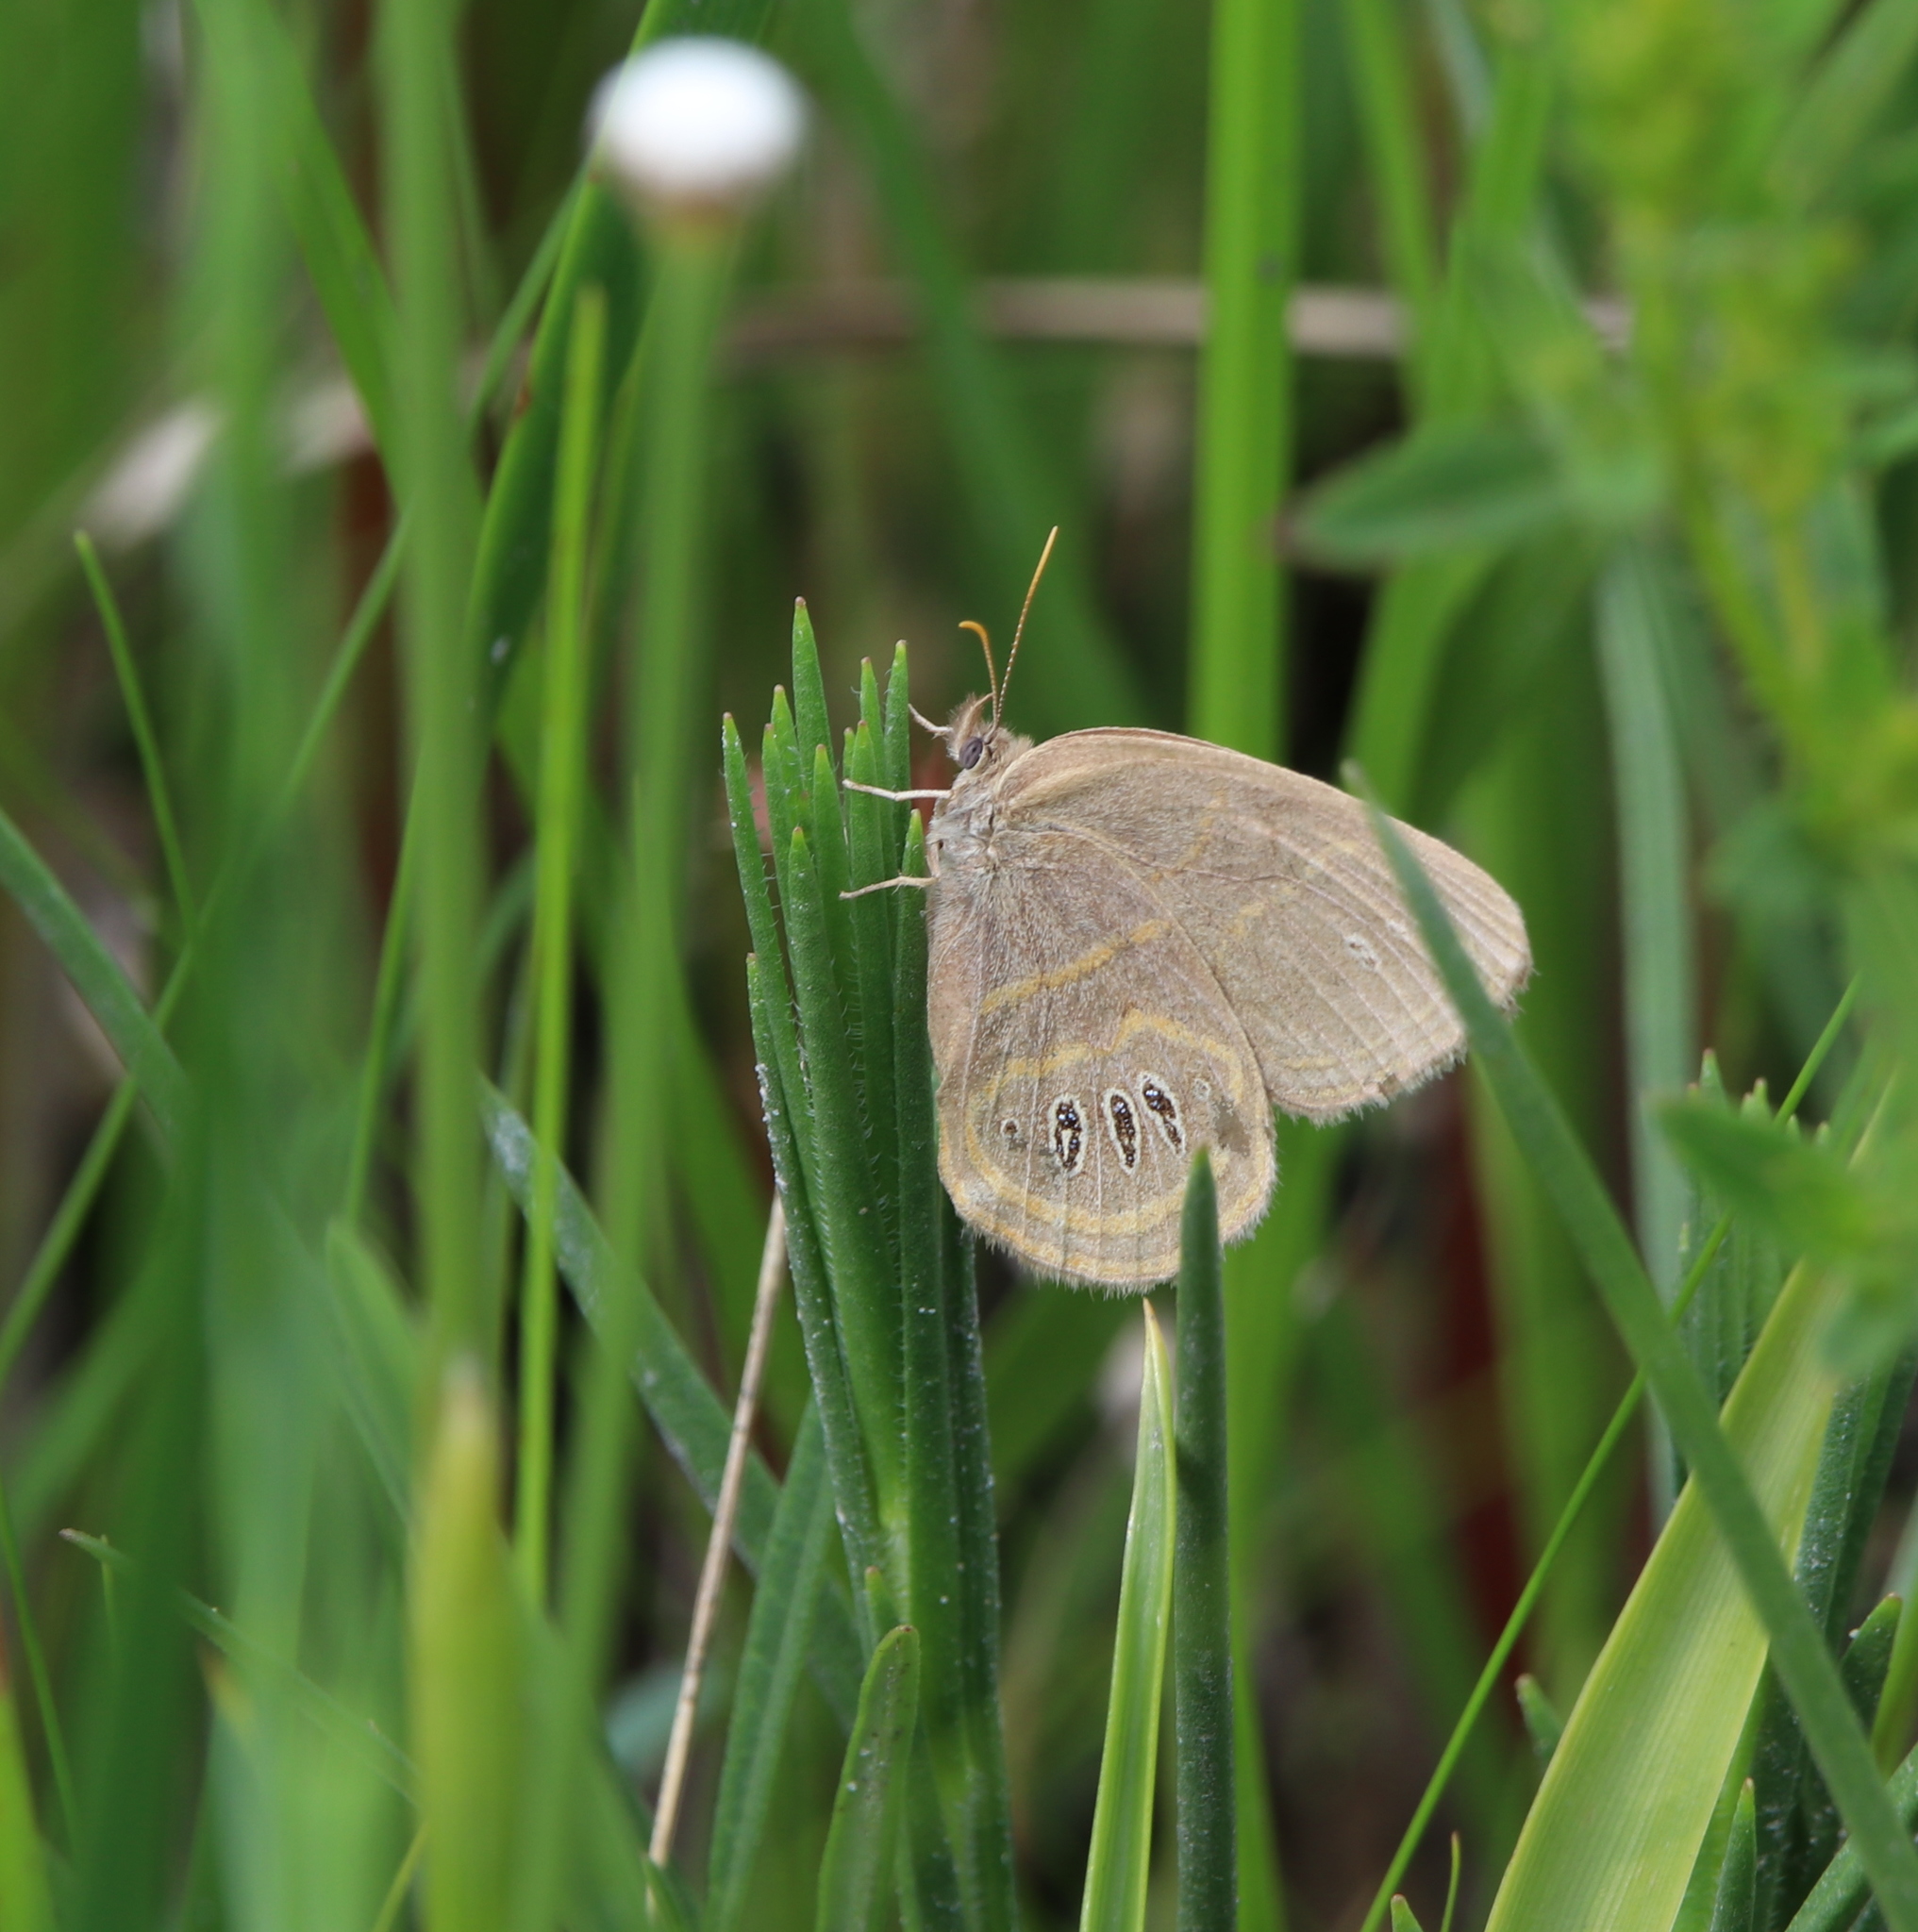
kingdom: Animalia
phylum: Arthropoda
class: Insecta
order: Lepidoptera
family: Nymphalidae
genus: Euptychia
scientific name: Euptychia phocion
